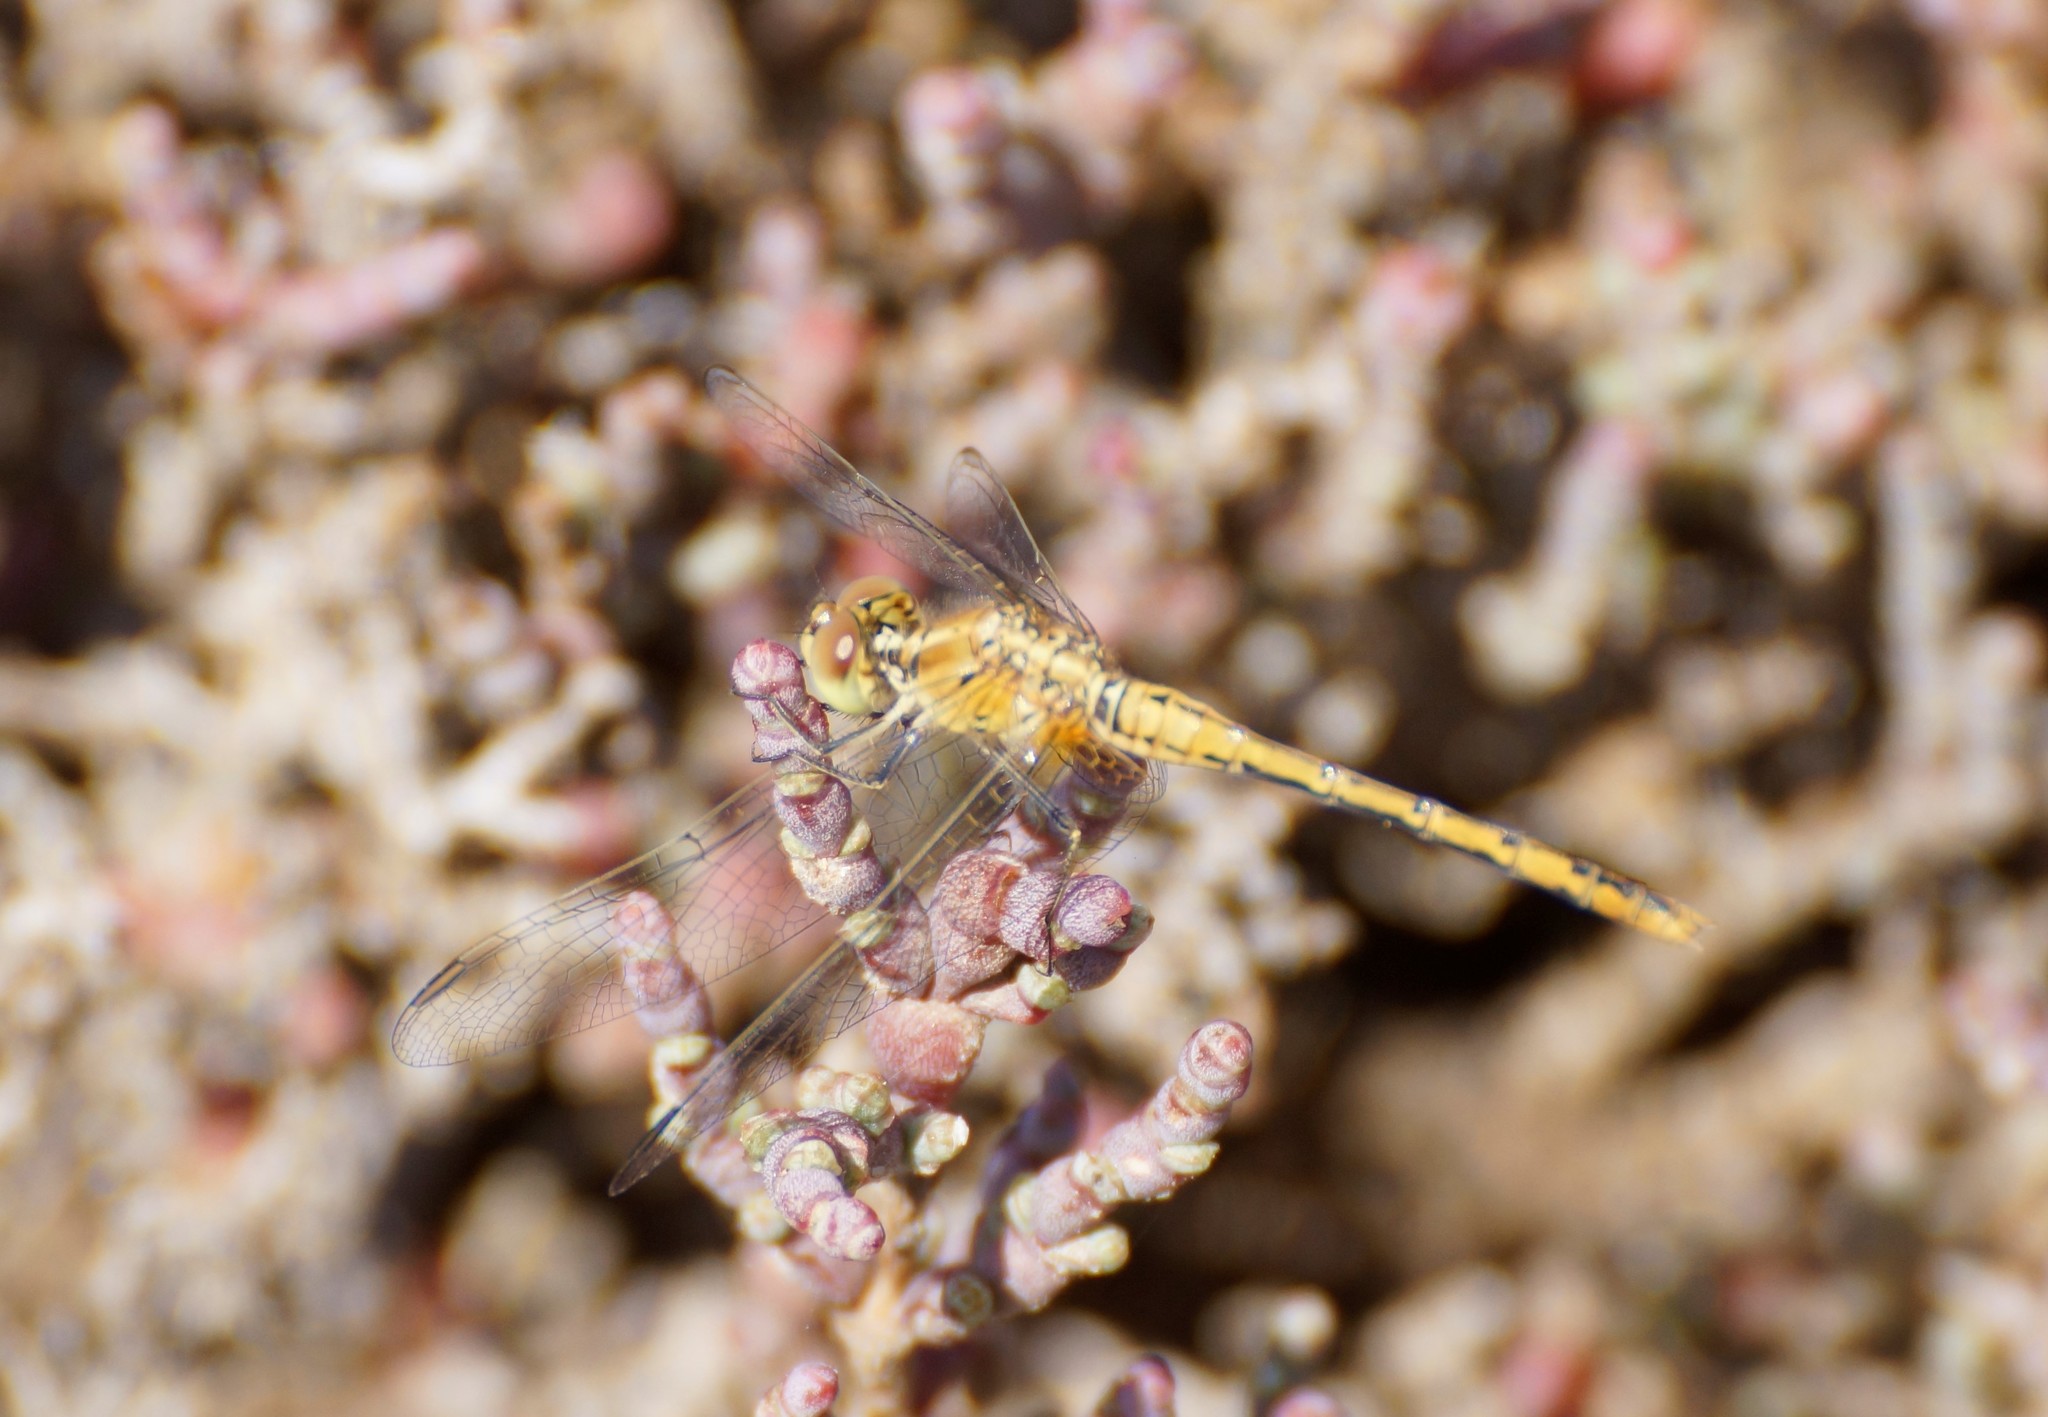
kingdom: Animalia
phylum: Arthropoda
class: Insecta
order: Odonata
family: Libellulidae
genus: Diplacodes
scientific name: Diplacodes bipunctata
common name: Red percher dragonfly
